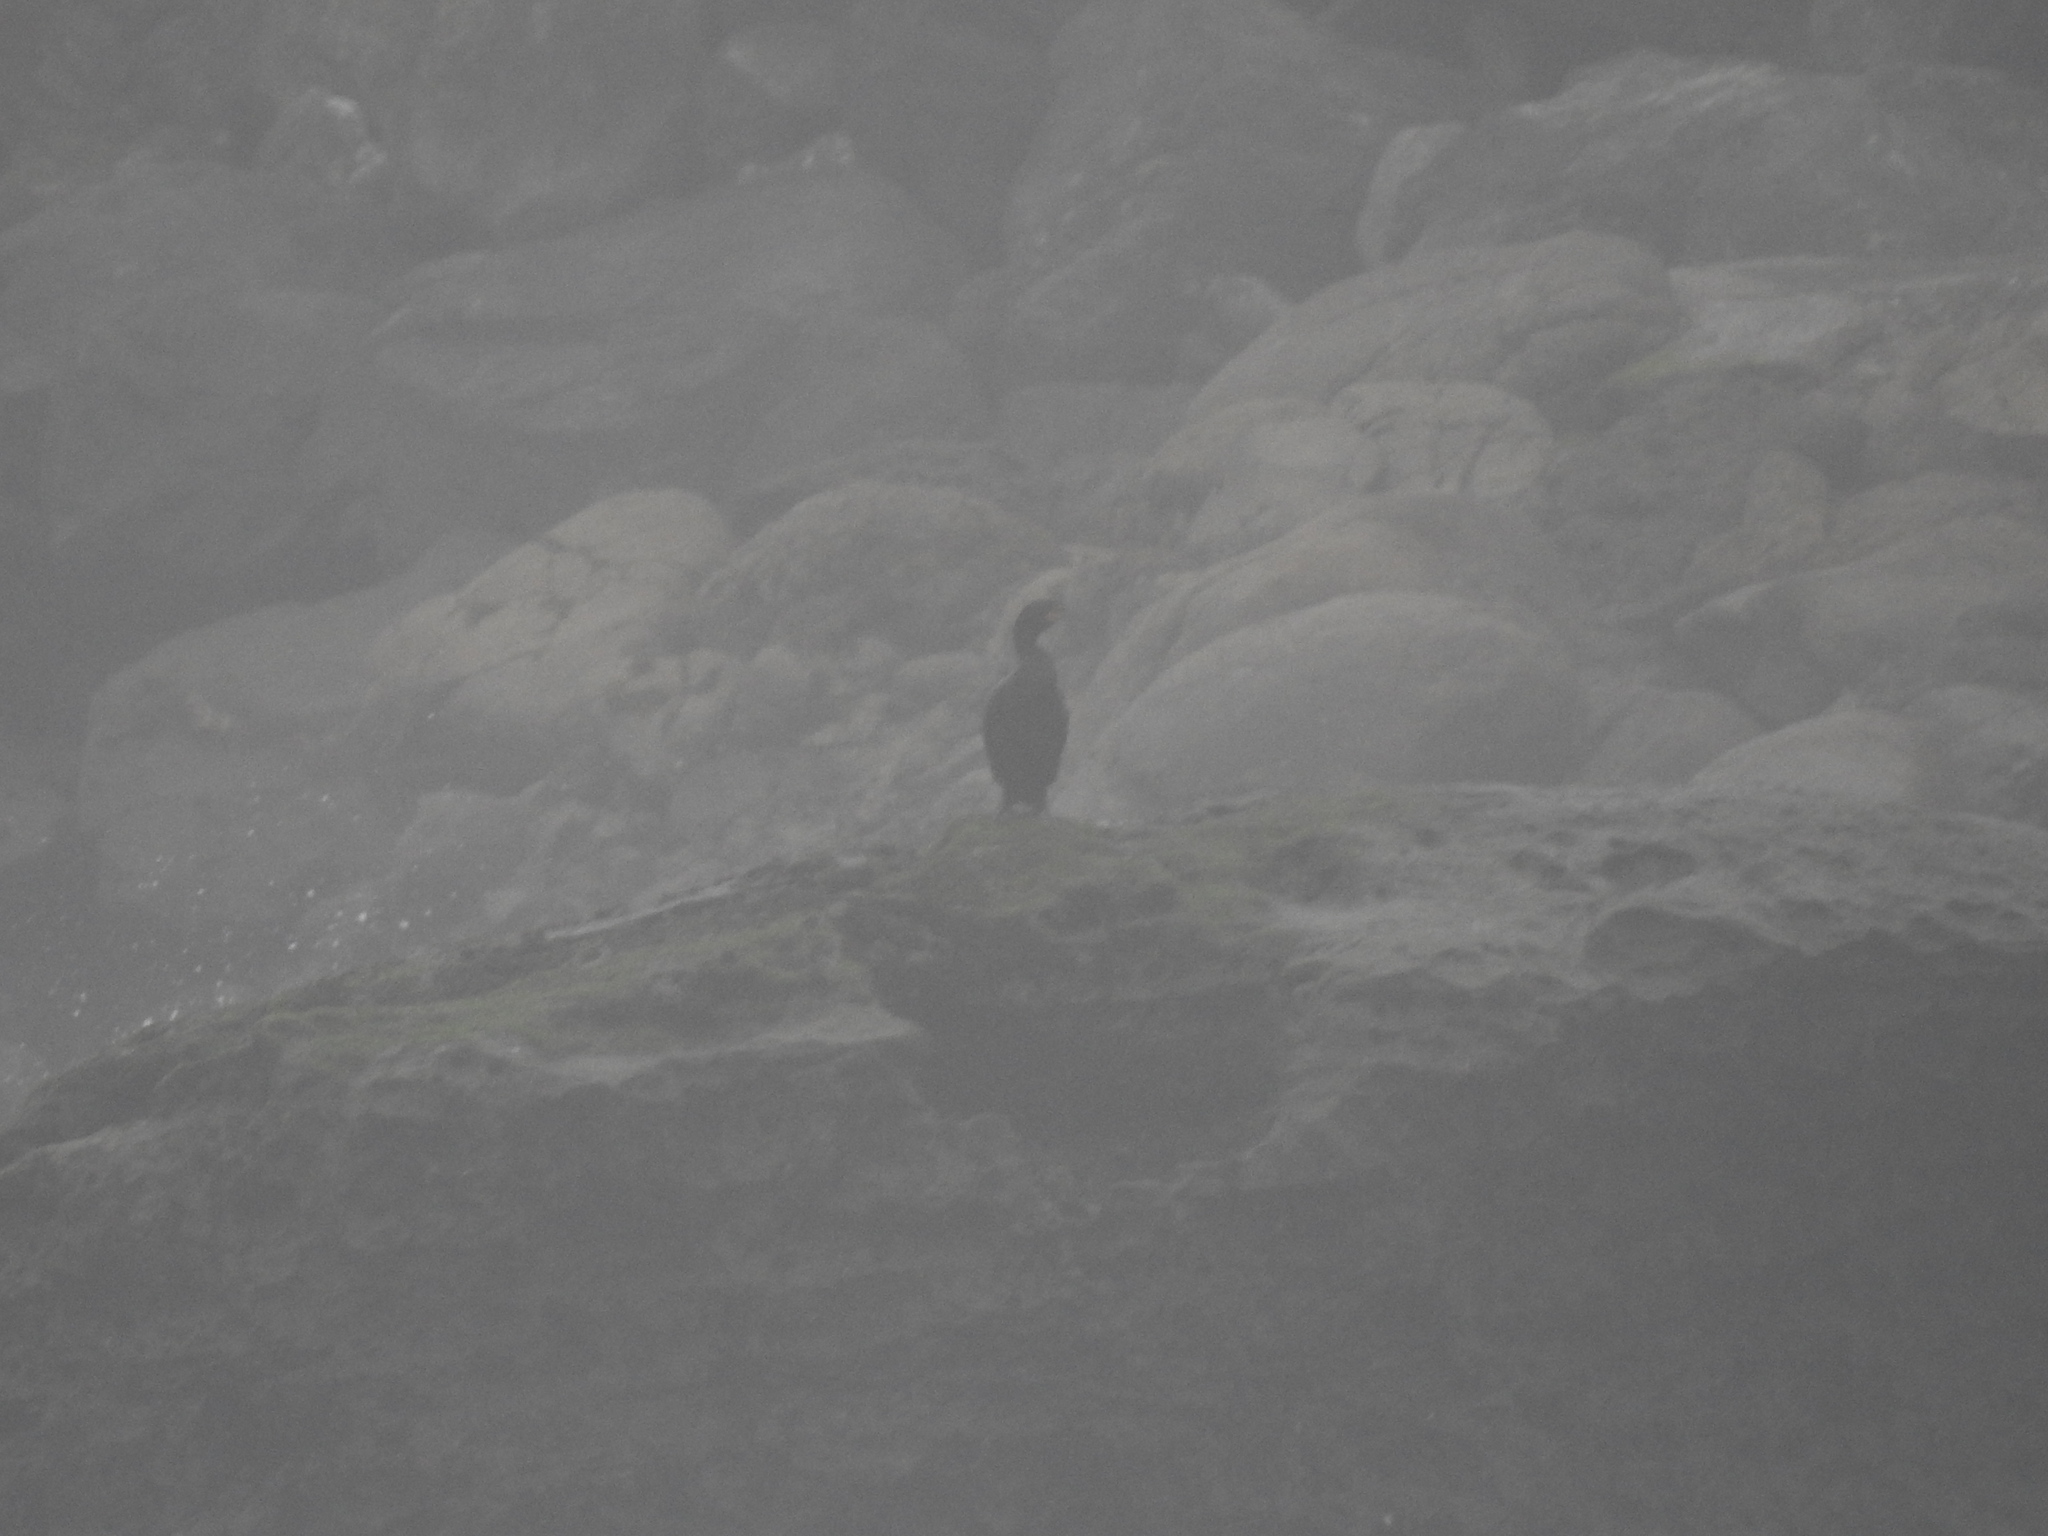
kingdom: Animalia
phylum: Chordata
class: Aves
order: Suliformes
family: Phalacrocoracidae
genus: Phalacrocorax
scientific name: Phalacrocorax auritus
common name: Double-crested cormorant
